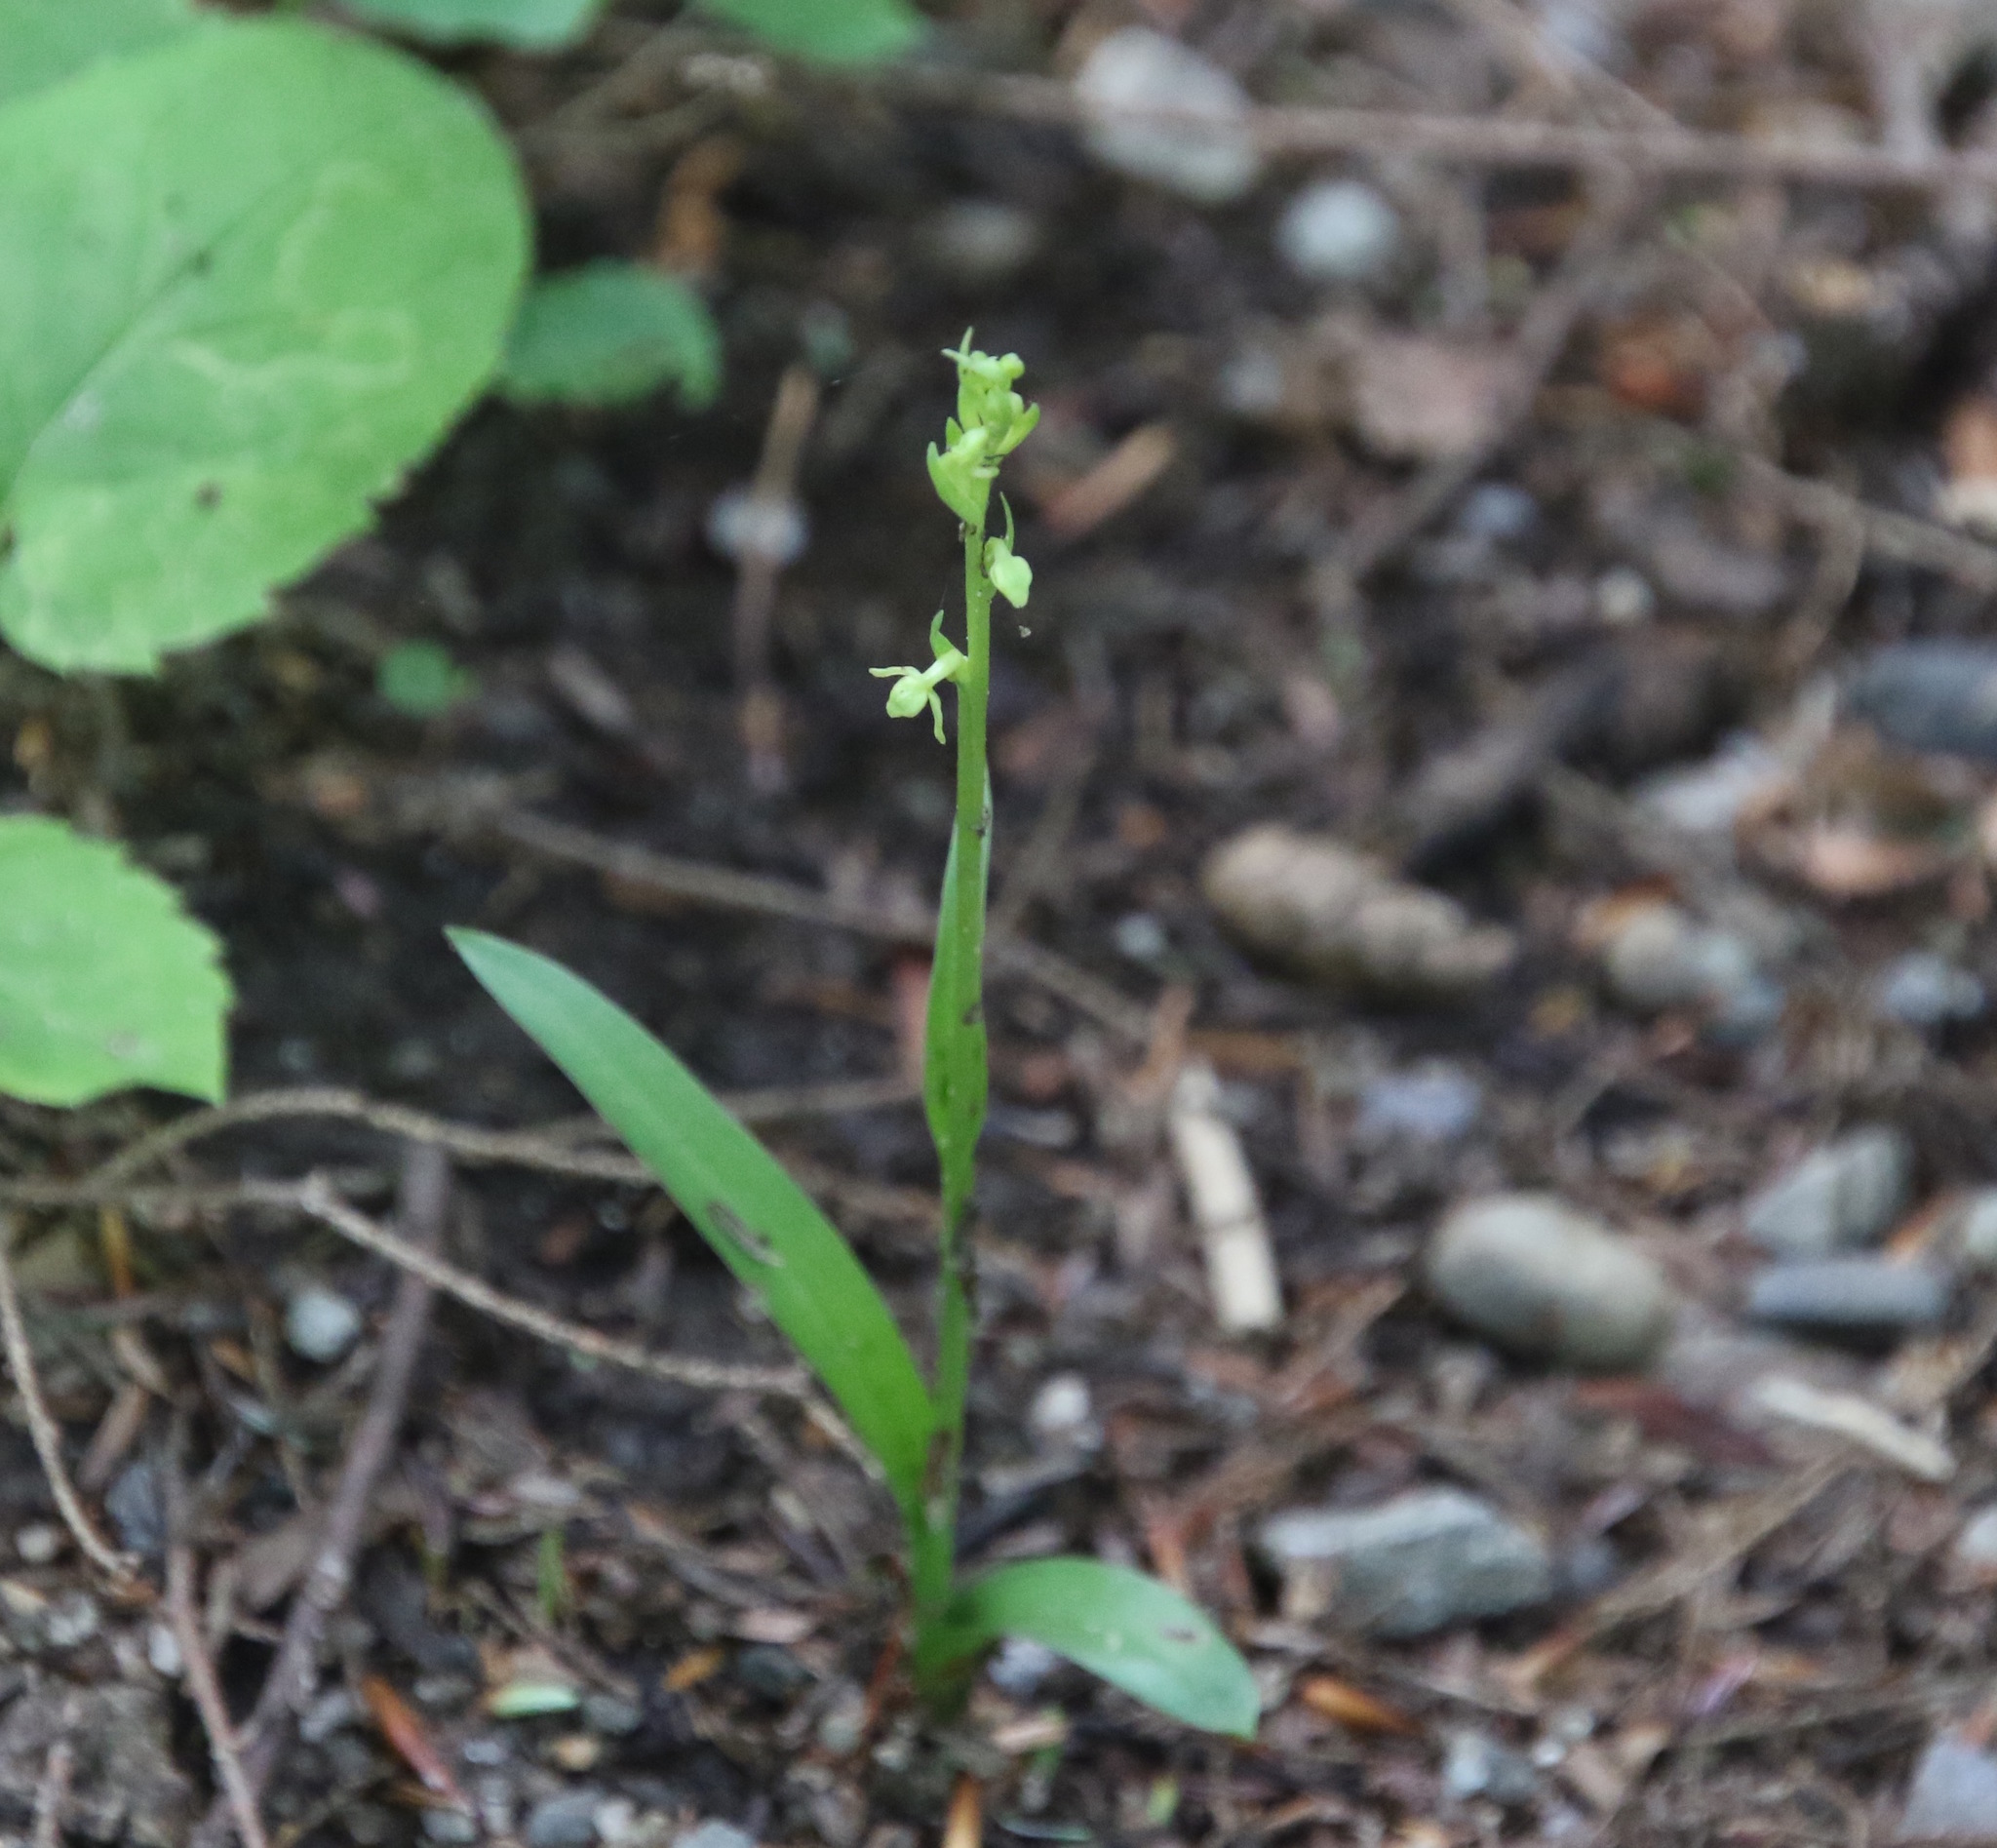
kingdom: Plantae
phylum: Tracheophyta
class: Liliopsida
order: Asparagales
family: Orchidaceae
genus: Platanthera
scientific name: Platanthera aquilonis
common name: Northern green orchid
